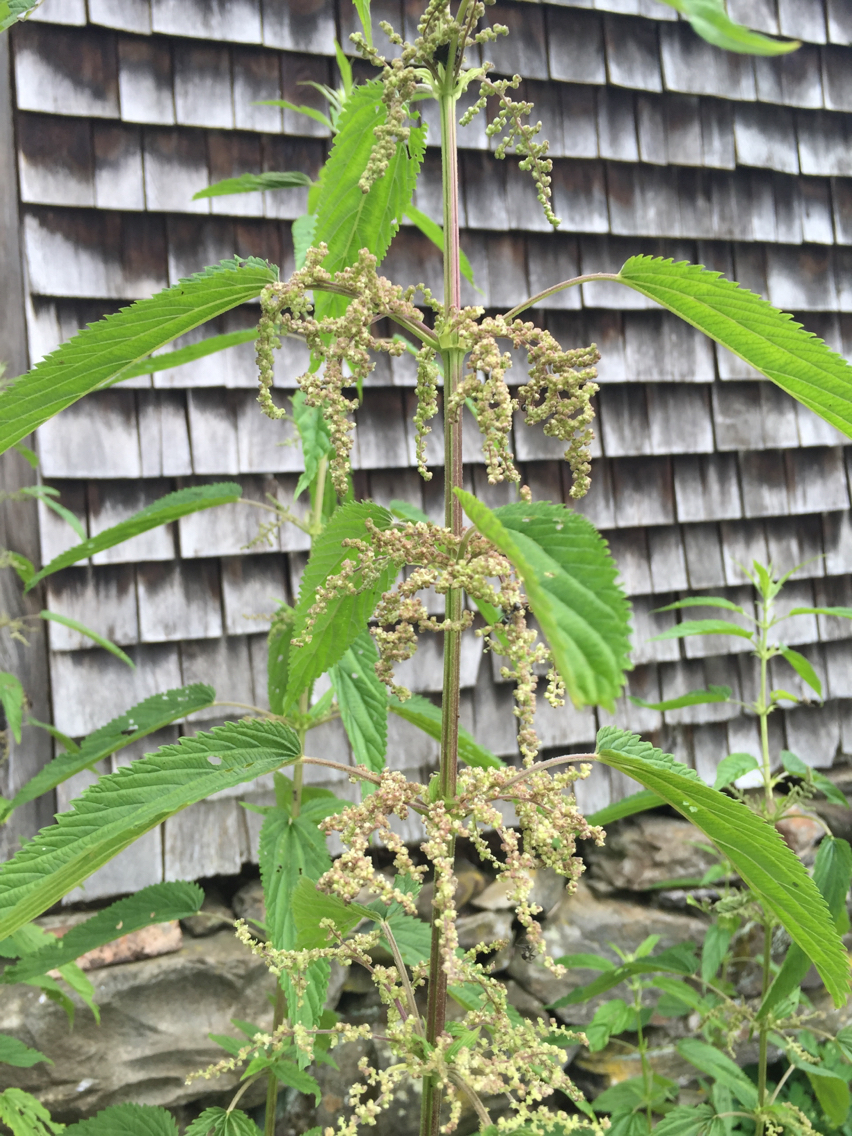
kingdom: Plantae
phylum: Tracheophyta
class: Magnoliopsida
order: Rosales
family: Urticaceae
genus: Urtica
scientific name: Urtica dioica
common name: Common nettle
